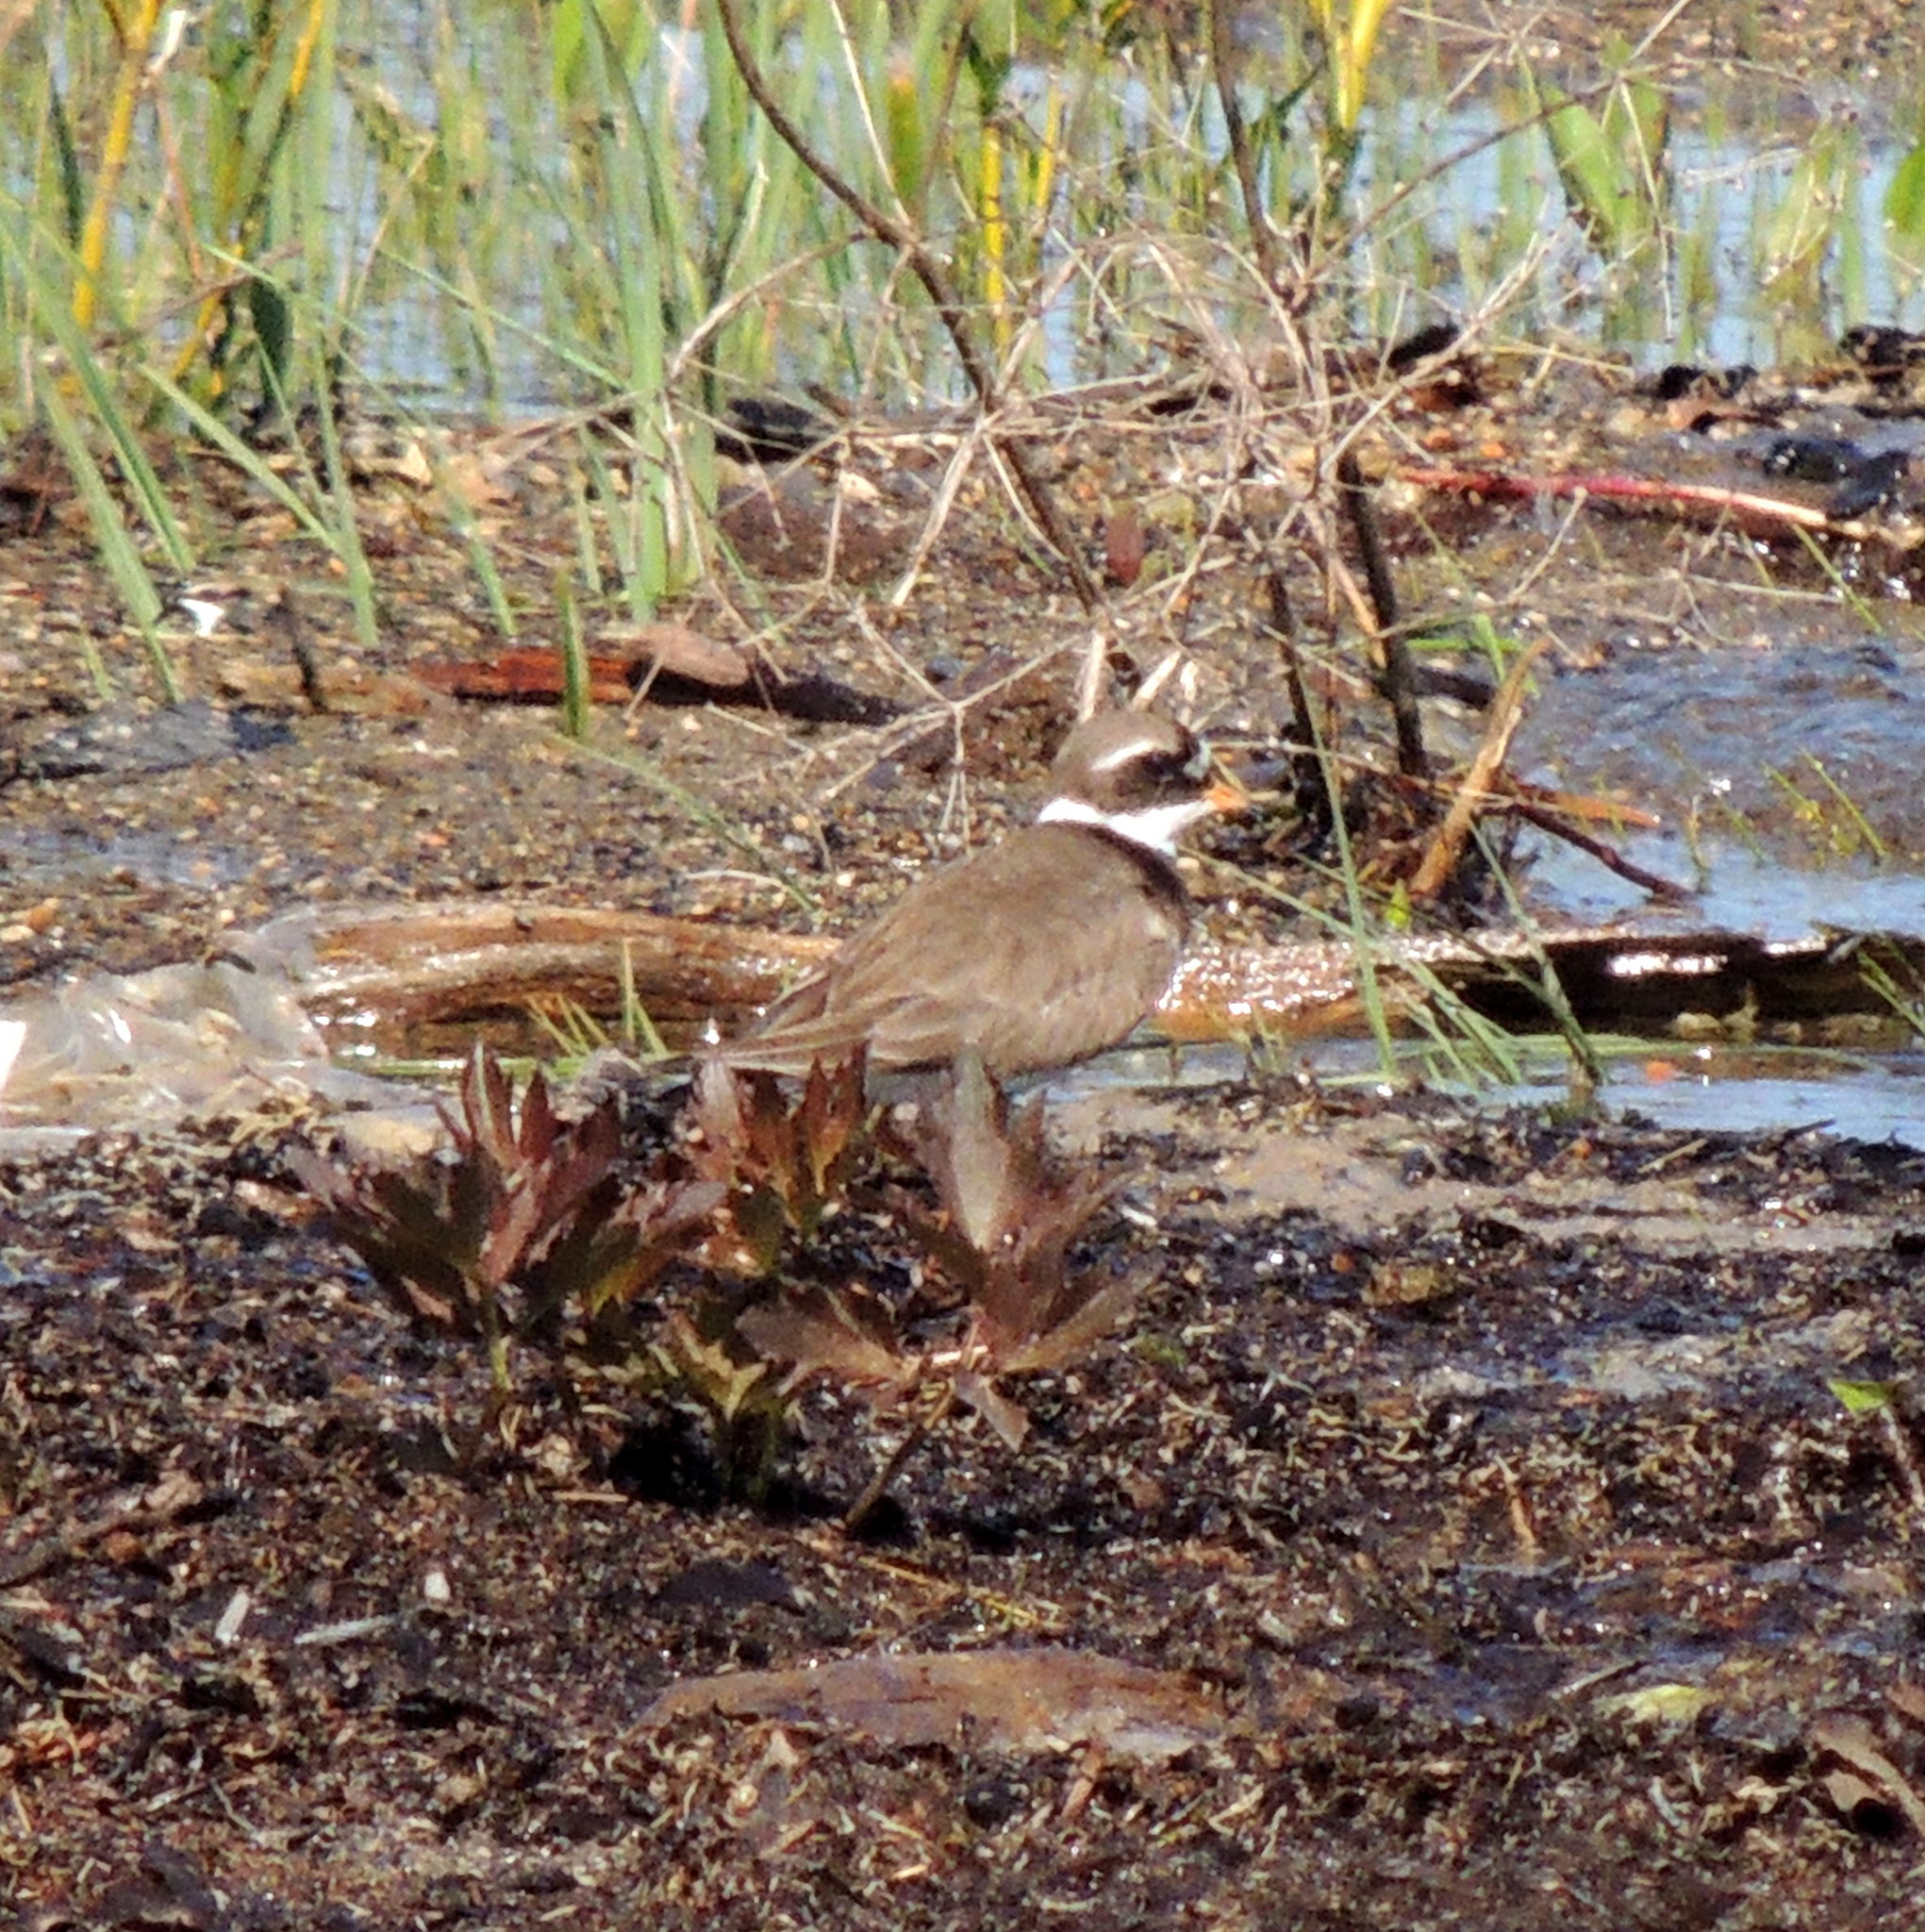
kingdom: Animalia
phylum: Chordata
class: Aves
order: Charadriiformes
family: Charadriidae
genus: Charadrius
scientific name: Charadrius hiaticula
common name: Common ringed plover
